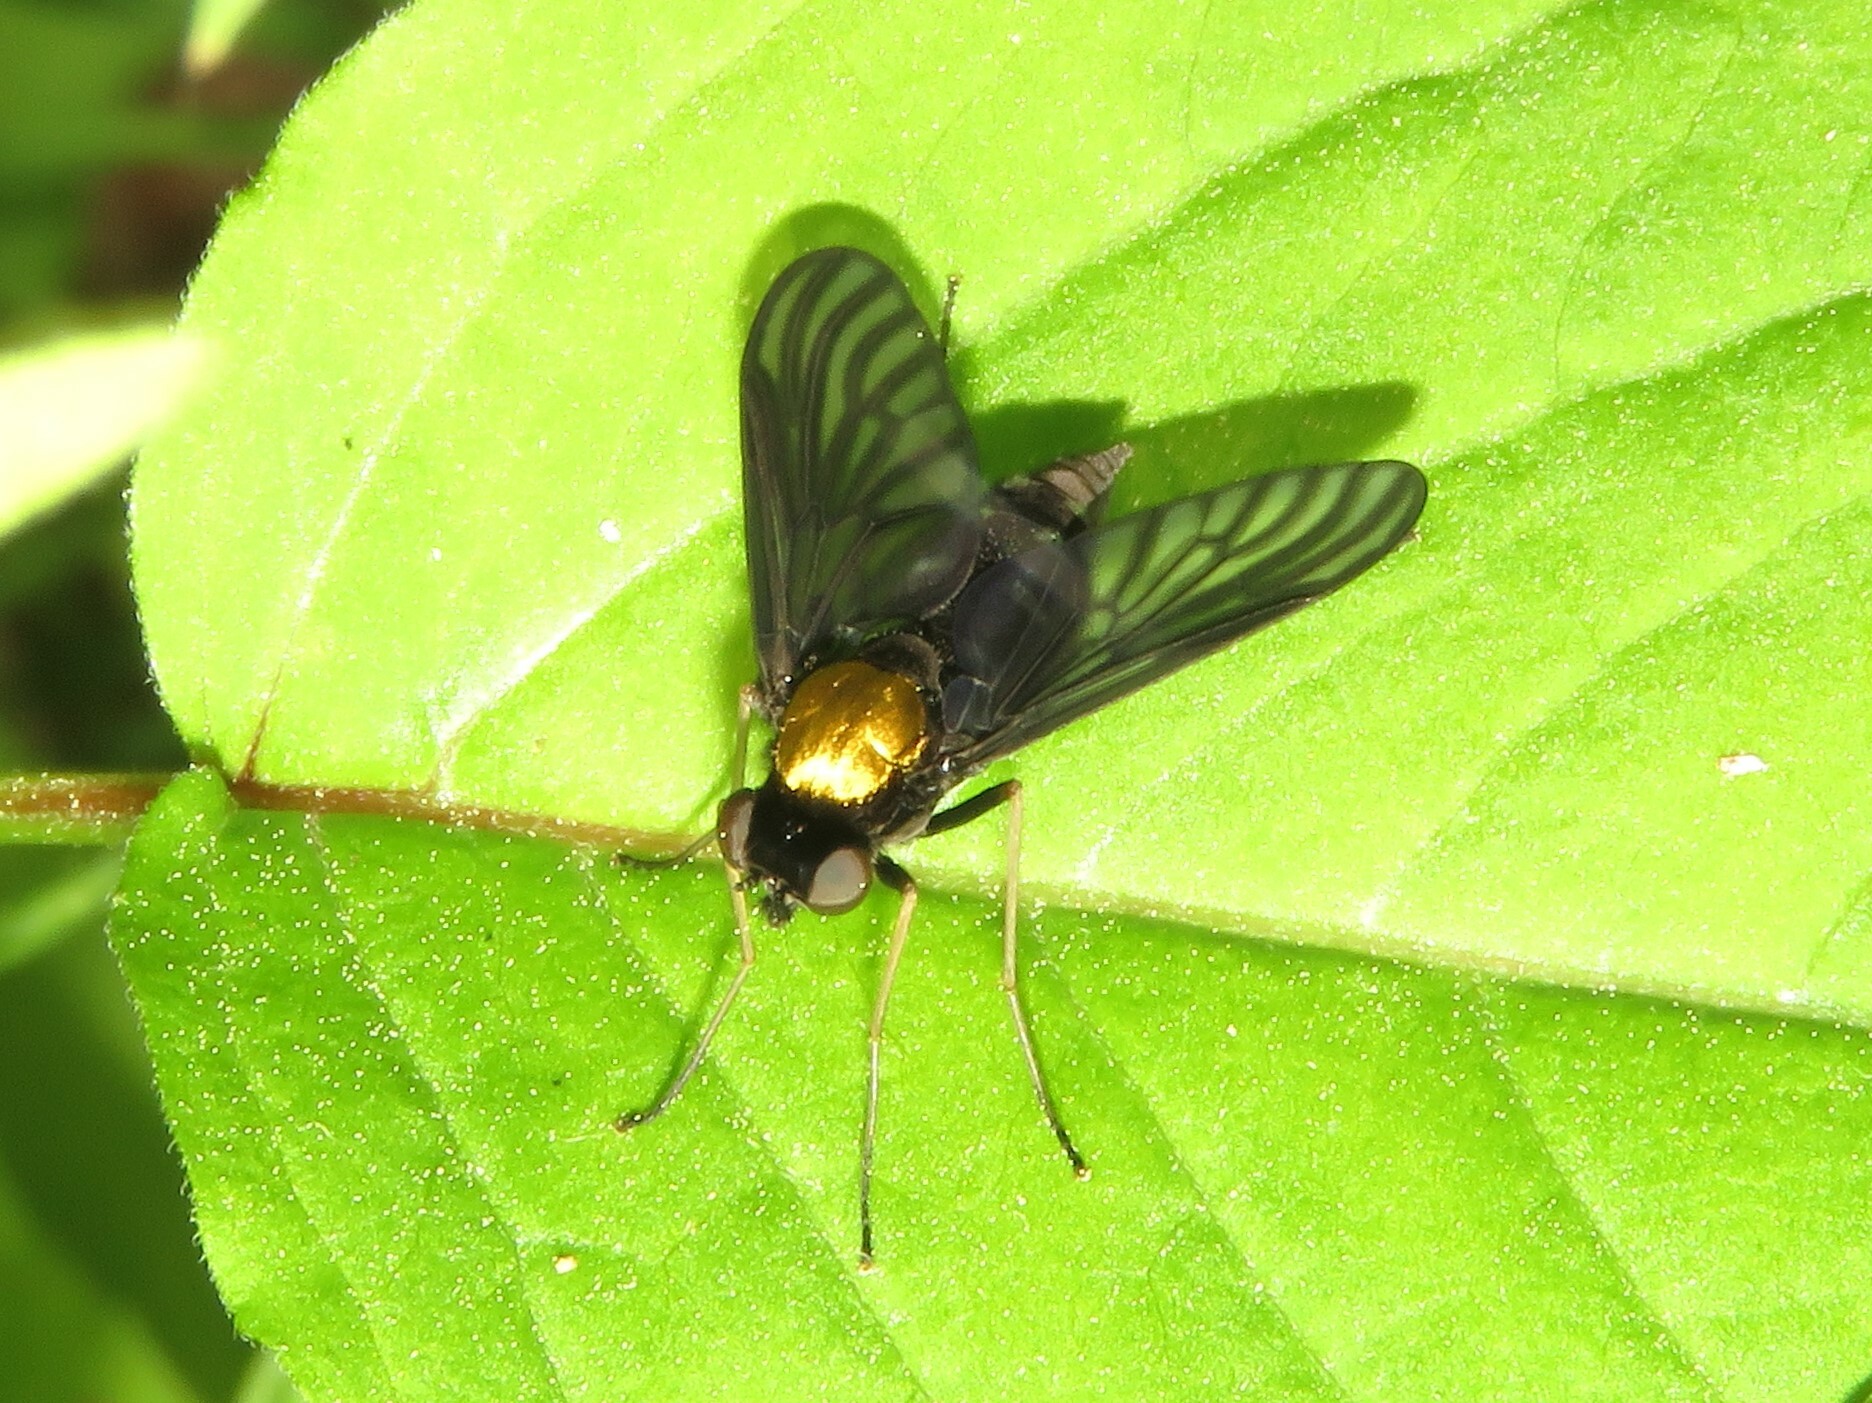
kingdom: Animalia
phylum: Arthropoda
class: Insecta
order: Diptera
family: Rhagionidae
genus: Chrysopilus
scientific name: Chrysopilus thoracicus
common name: Golden-backed snipe fly
